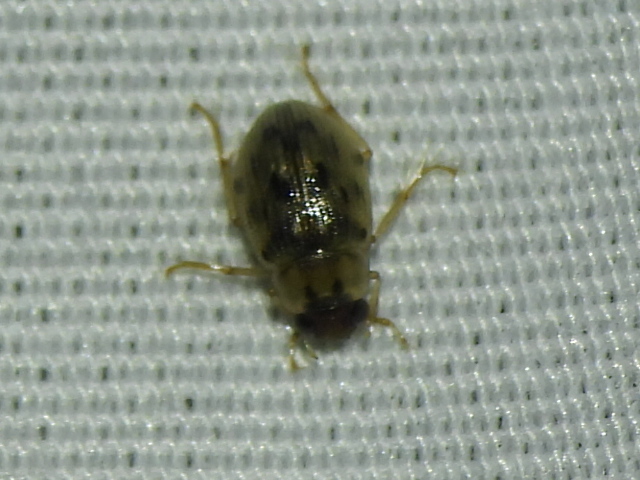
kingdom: Animalia
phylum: Arthropoda
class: Insecta
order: Coleoptera
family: Hydrophilidae
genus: Berosus
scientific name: Berosus pantherinus
